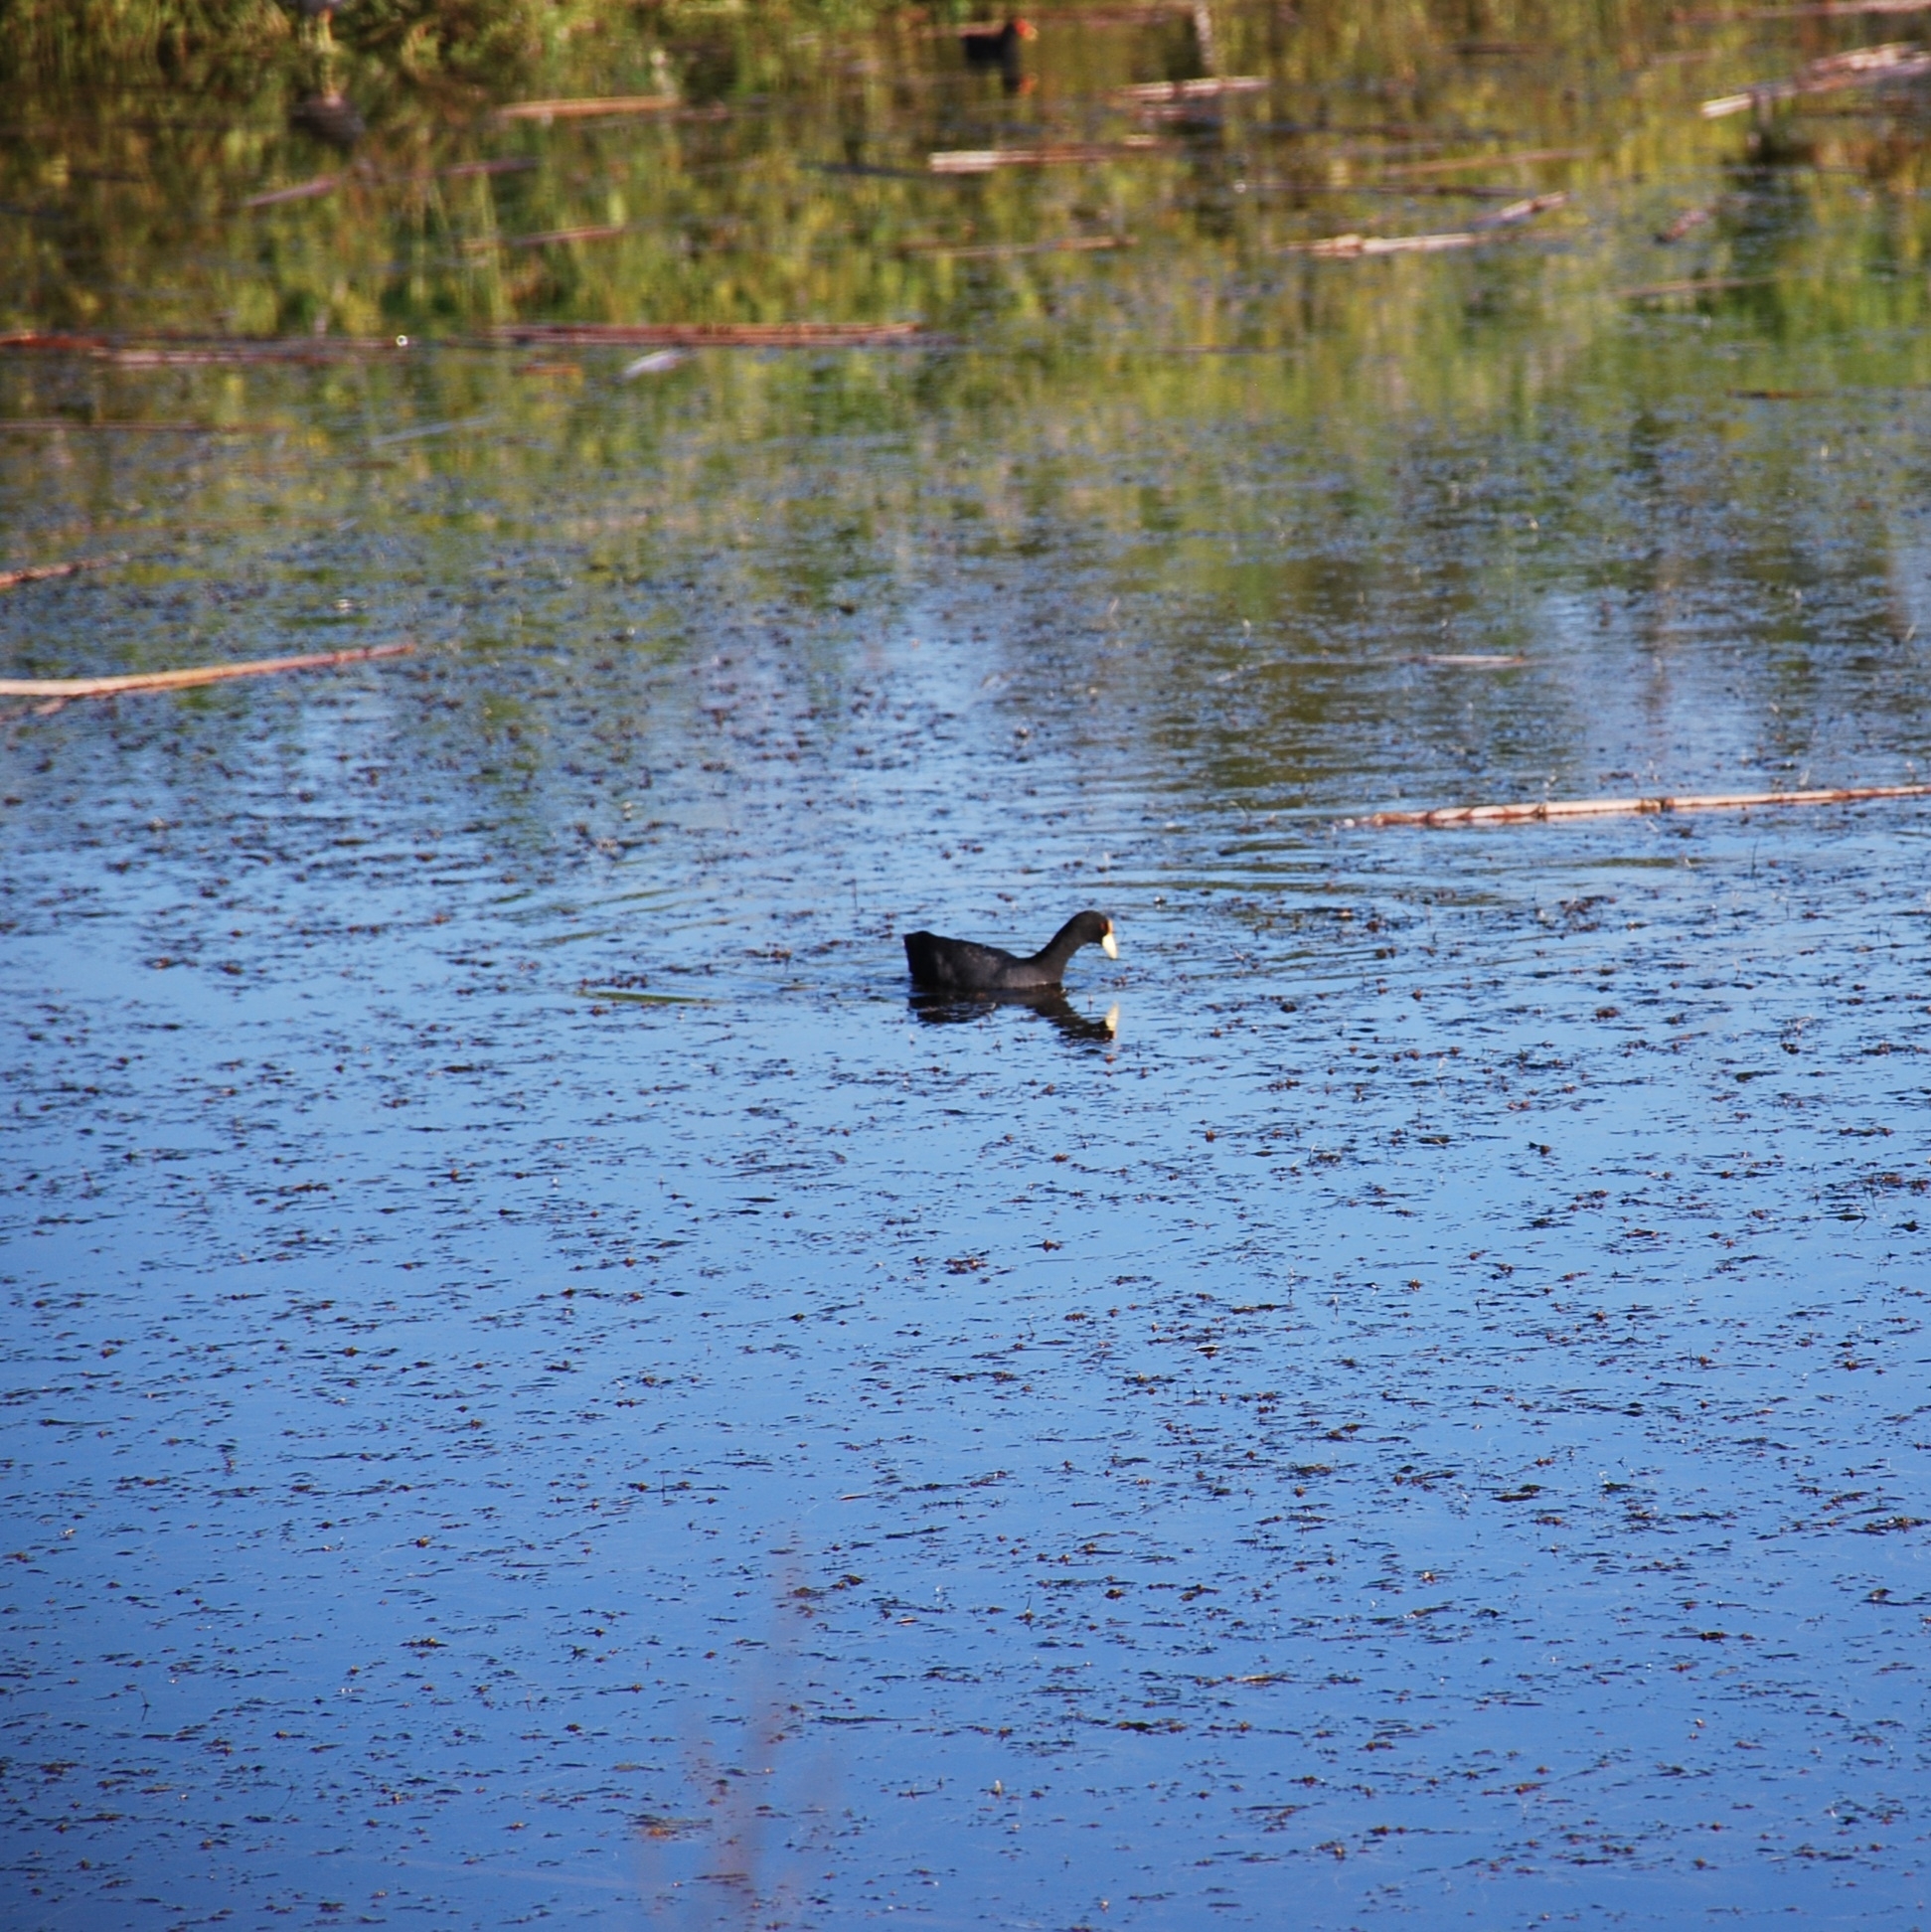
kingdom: Animalia
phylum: Chordata
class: Aves
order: Gruiformes
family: Rallidae
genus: Fulica
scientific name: Fulica leucoptera
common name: White-winged coot
